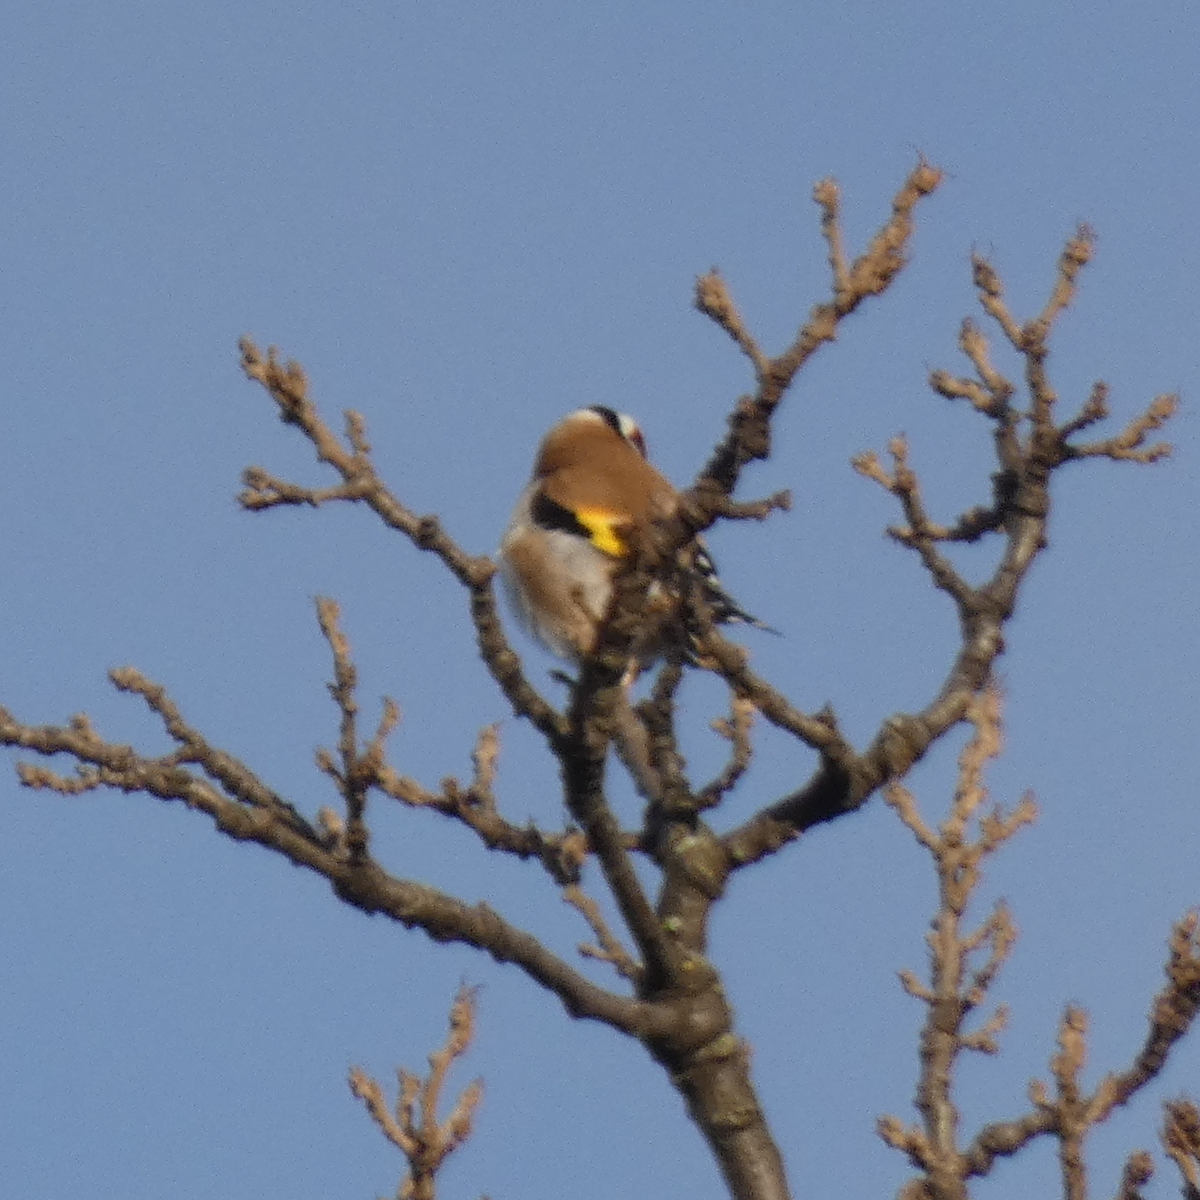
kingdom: Animalia
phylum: Chordata
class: Aves
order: Passeriformes
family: Fringillidae
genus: Carduelis
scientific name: Carduelis carduelis
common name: European goldfinch
